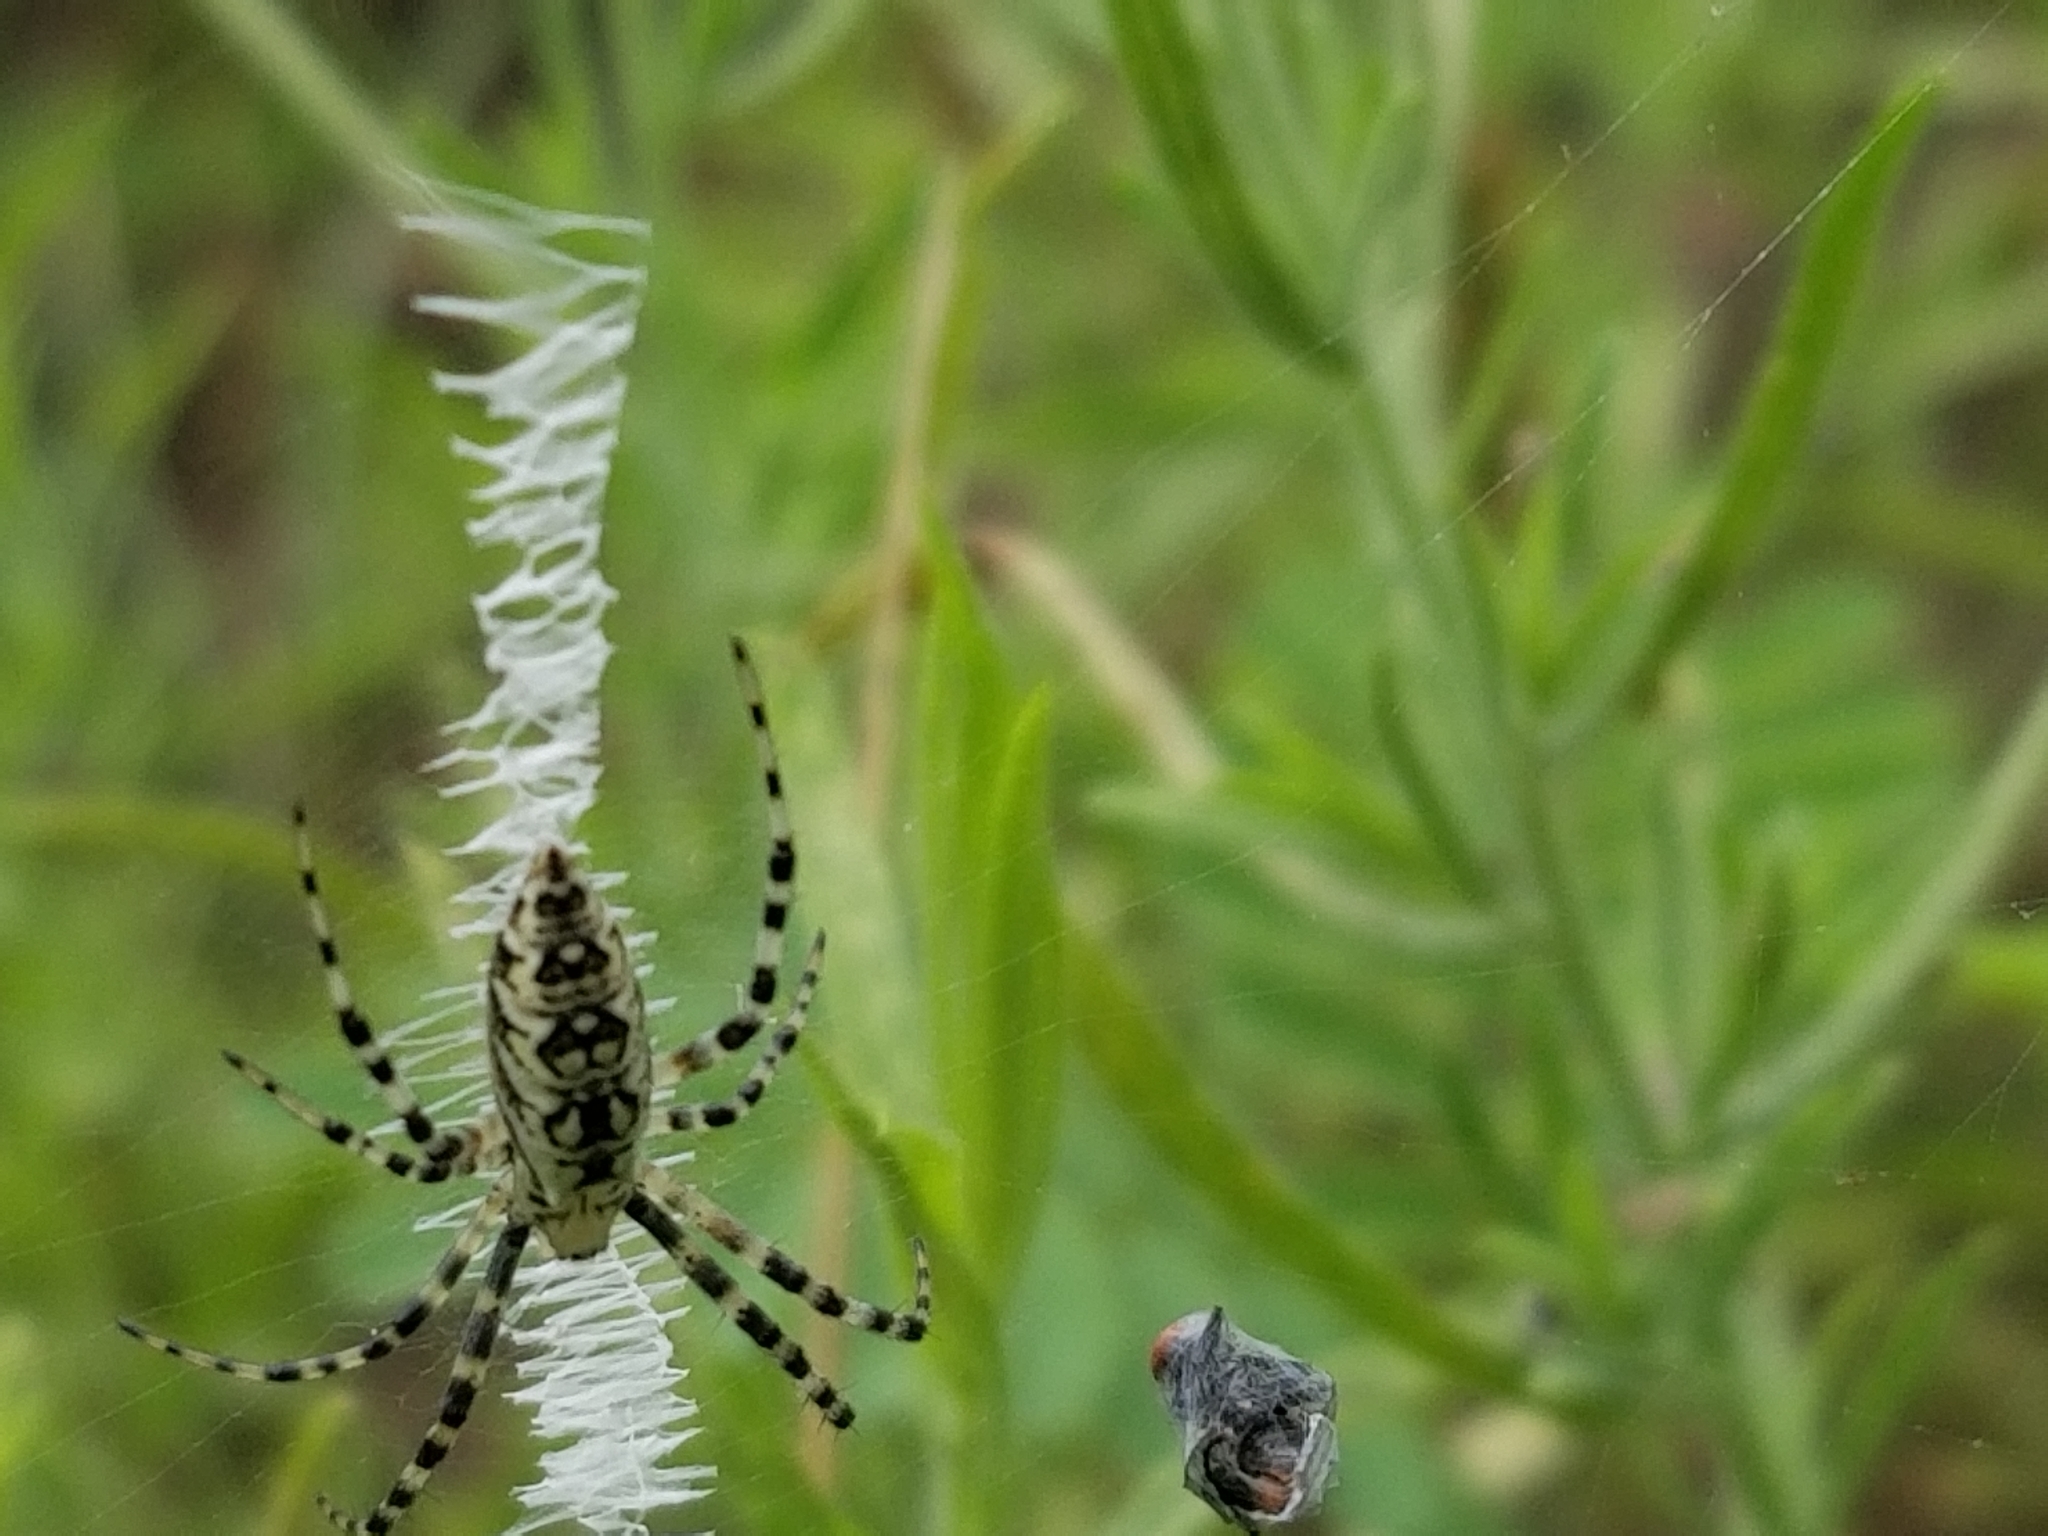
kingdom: Animalia
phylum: Arthropoda
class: Arachnida
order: Araneae
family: Araneidae
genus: Argiope
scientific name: Argiope aurantia
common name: Orb weavers
